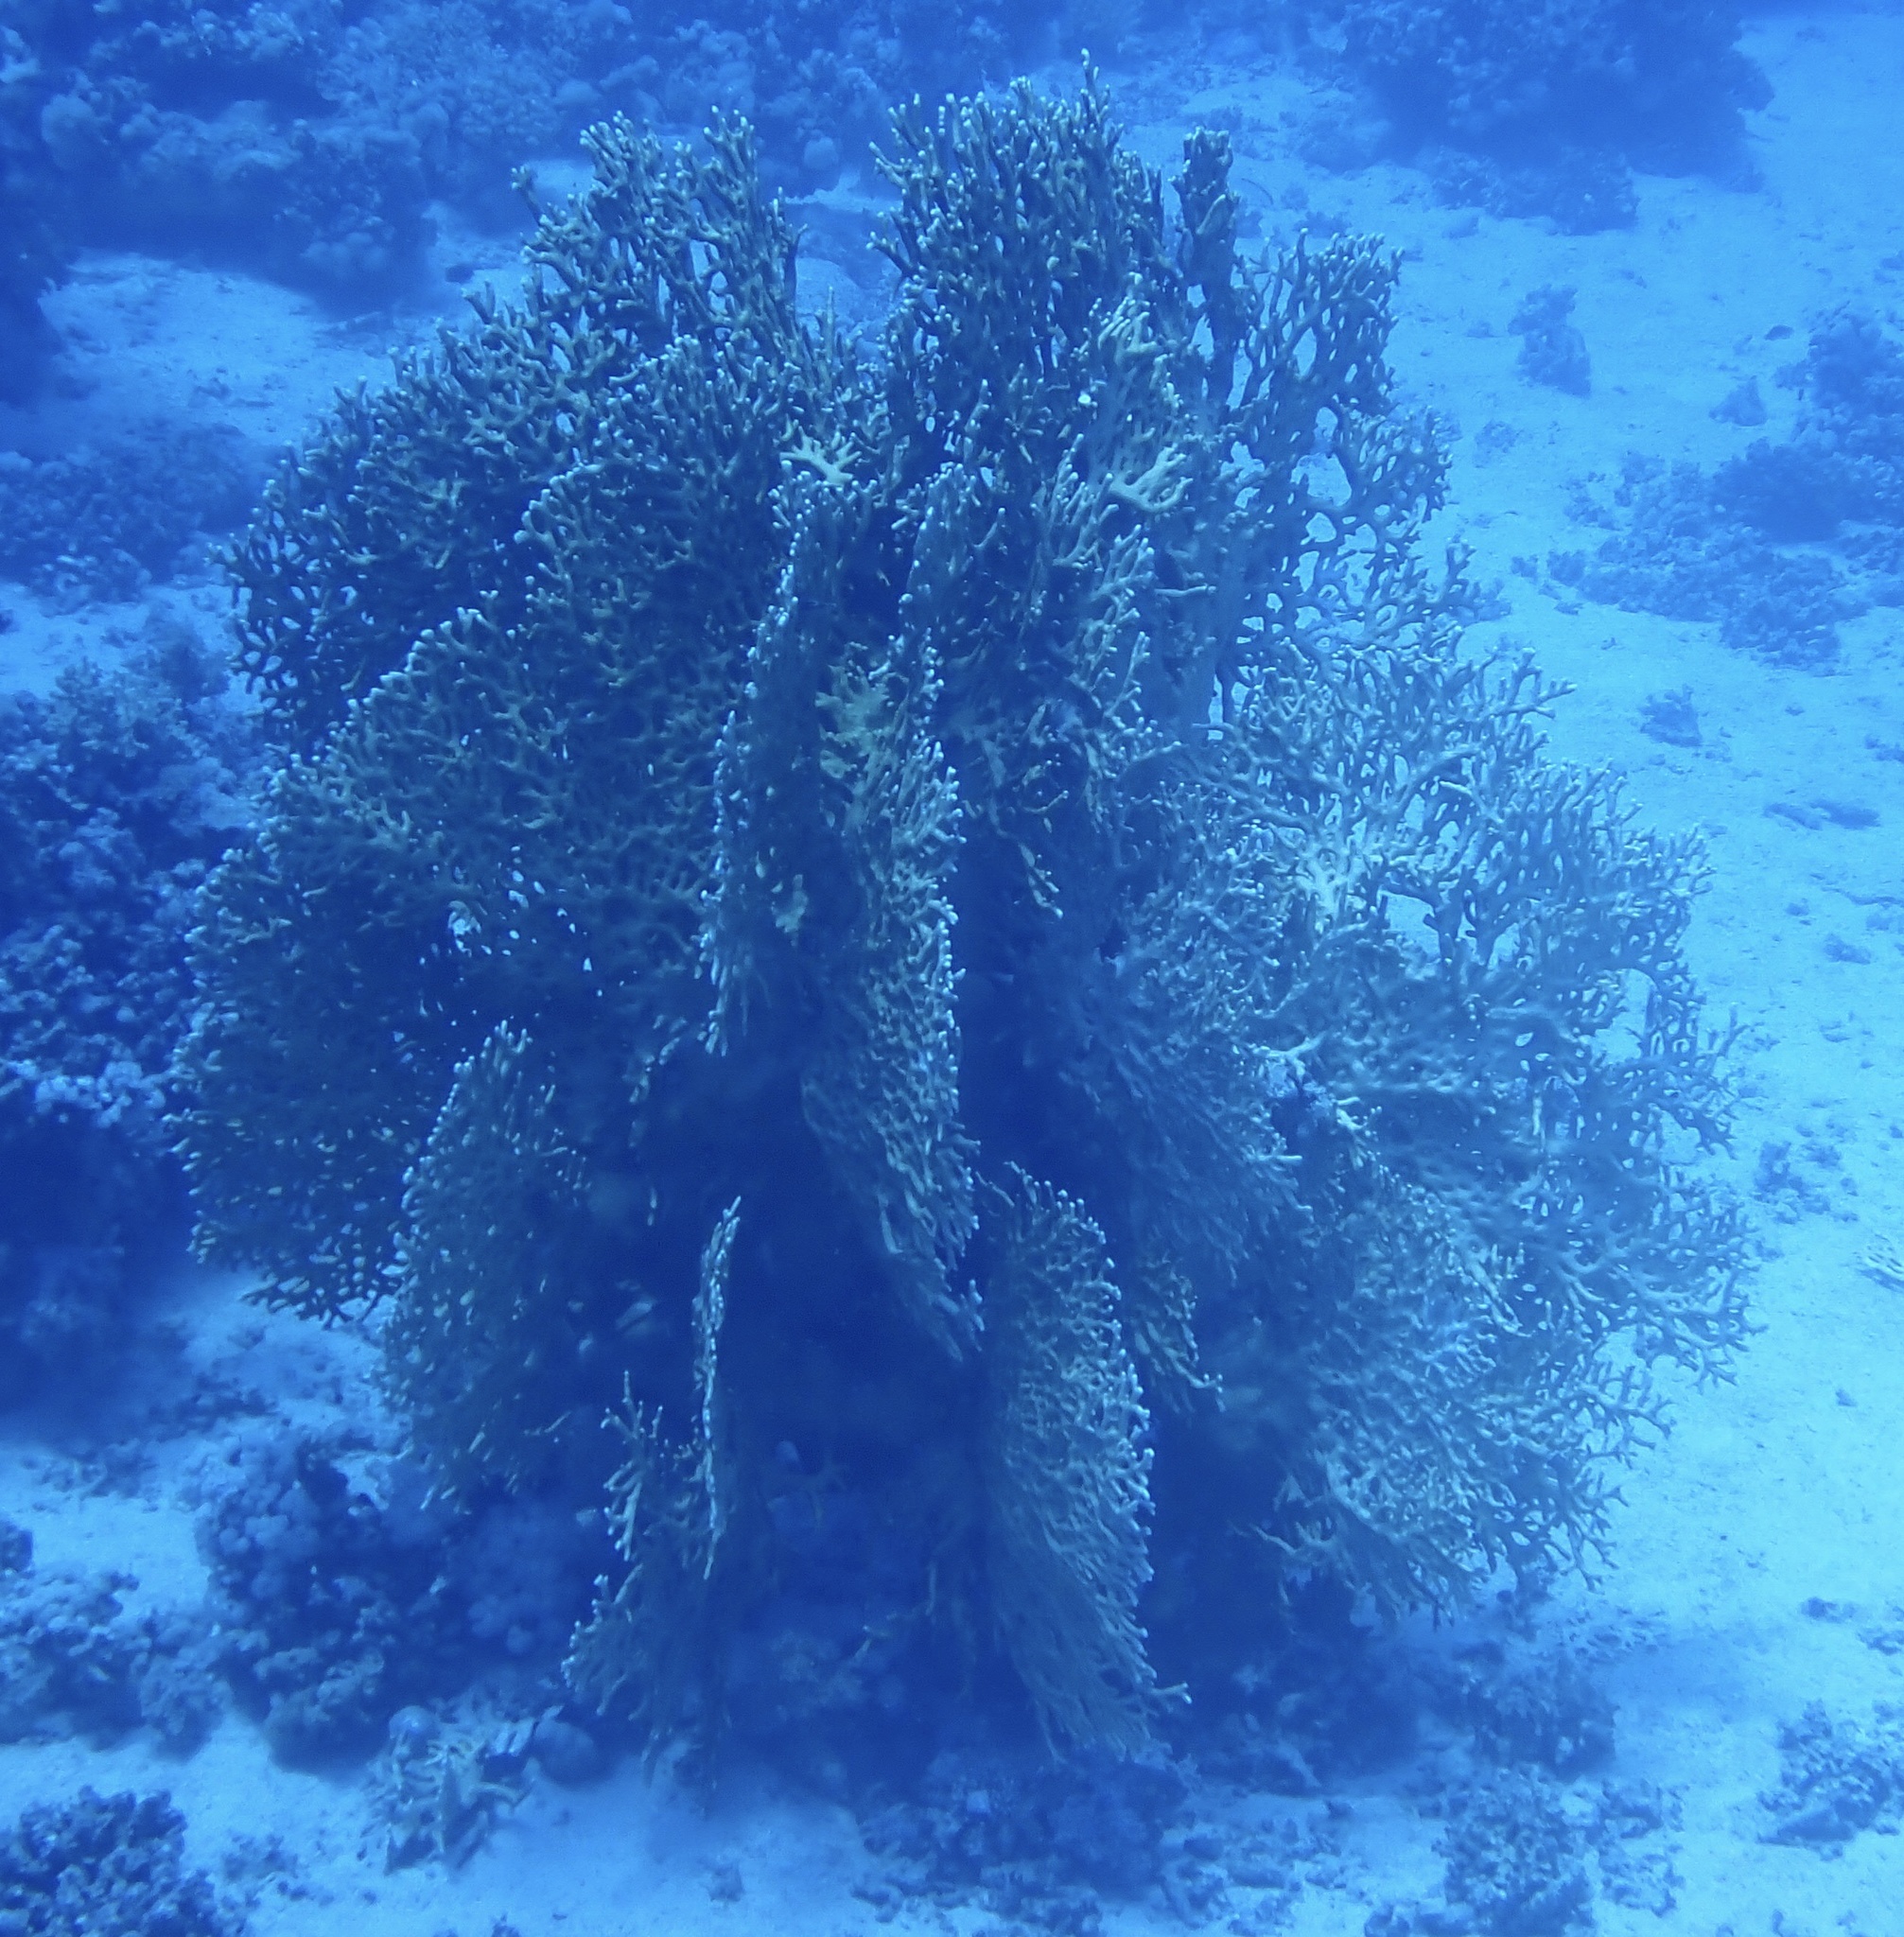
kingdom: Animalia
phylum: Cnidaria
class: Hydrozoa
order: Anthoathecata
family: Milleporidae
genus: Millepora
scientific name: Millepora dichotoma
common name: Ramified fire coral
